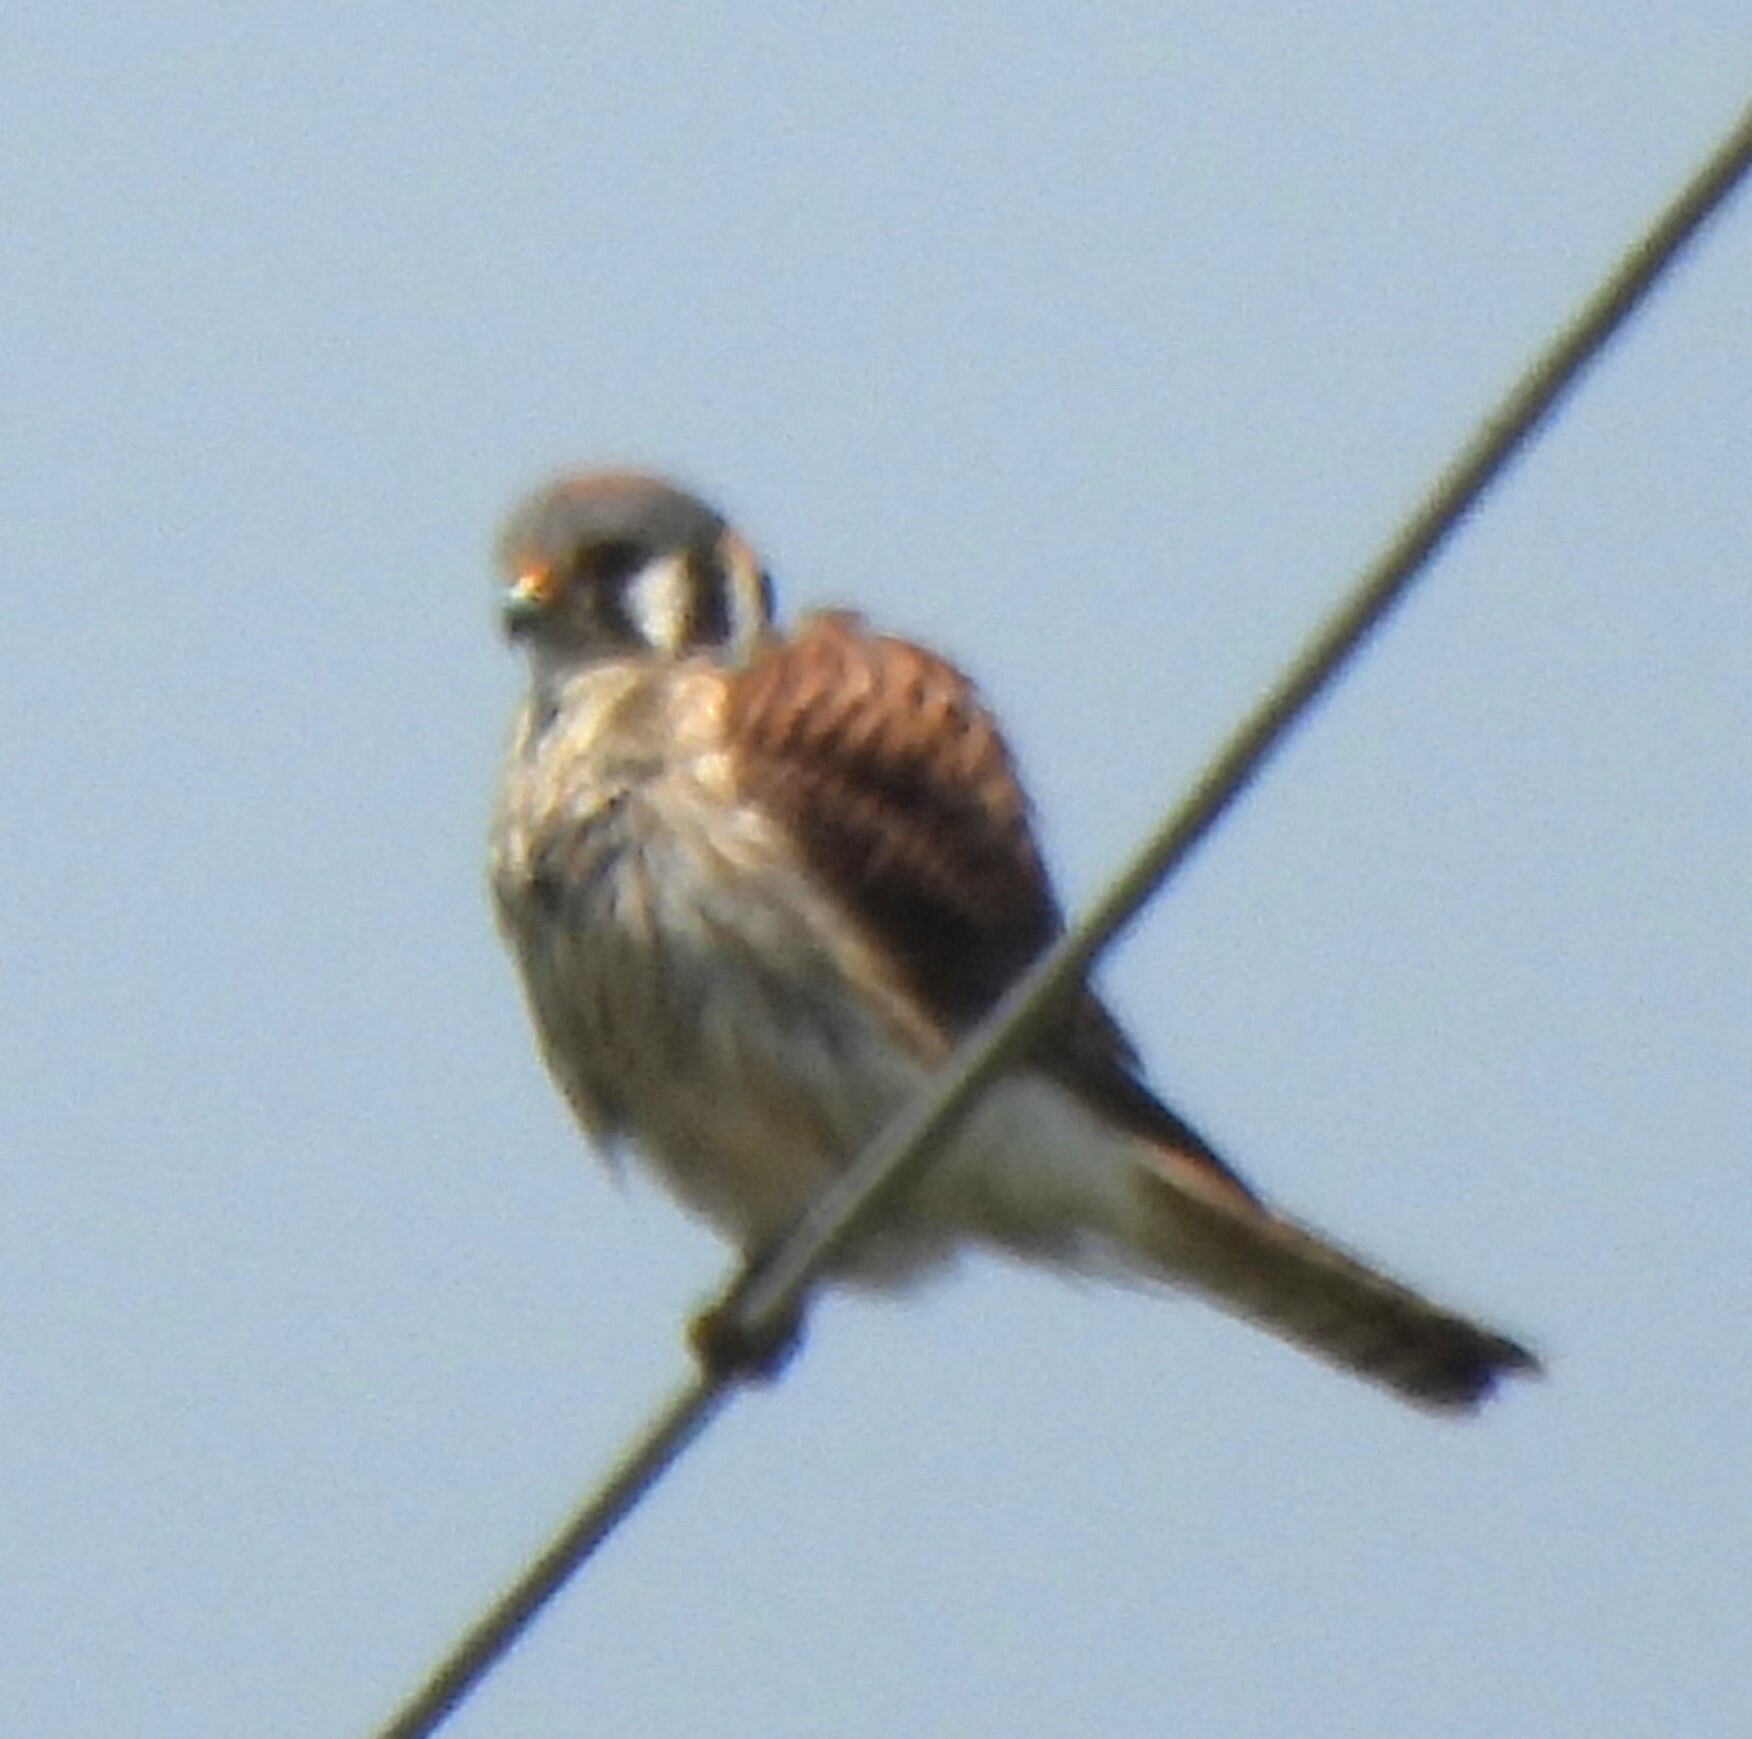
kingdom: Animalia
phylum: Chordata
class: Aves
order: Falconiformes
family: Falconidae
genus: Falco
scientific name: Falco sparverius
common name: American kestrel
